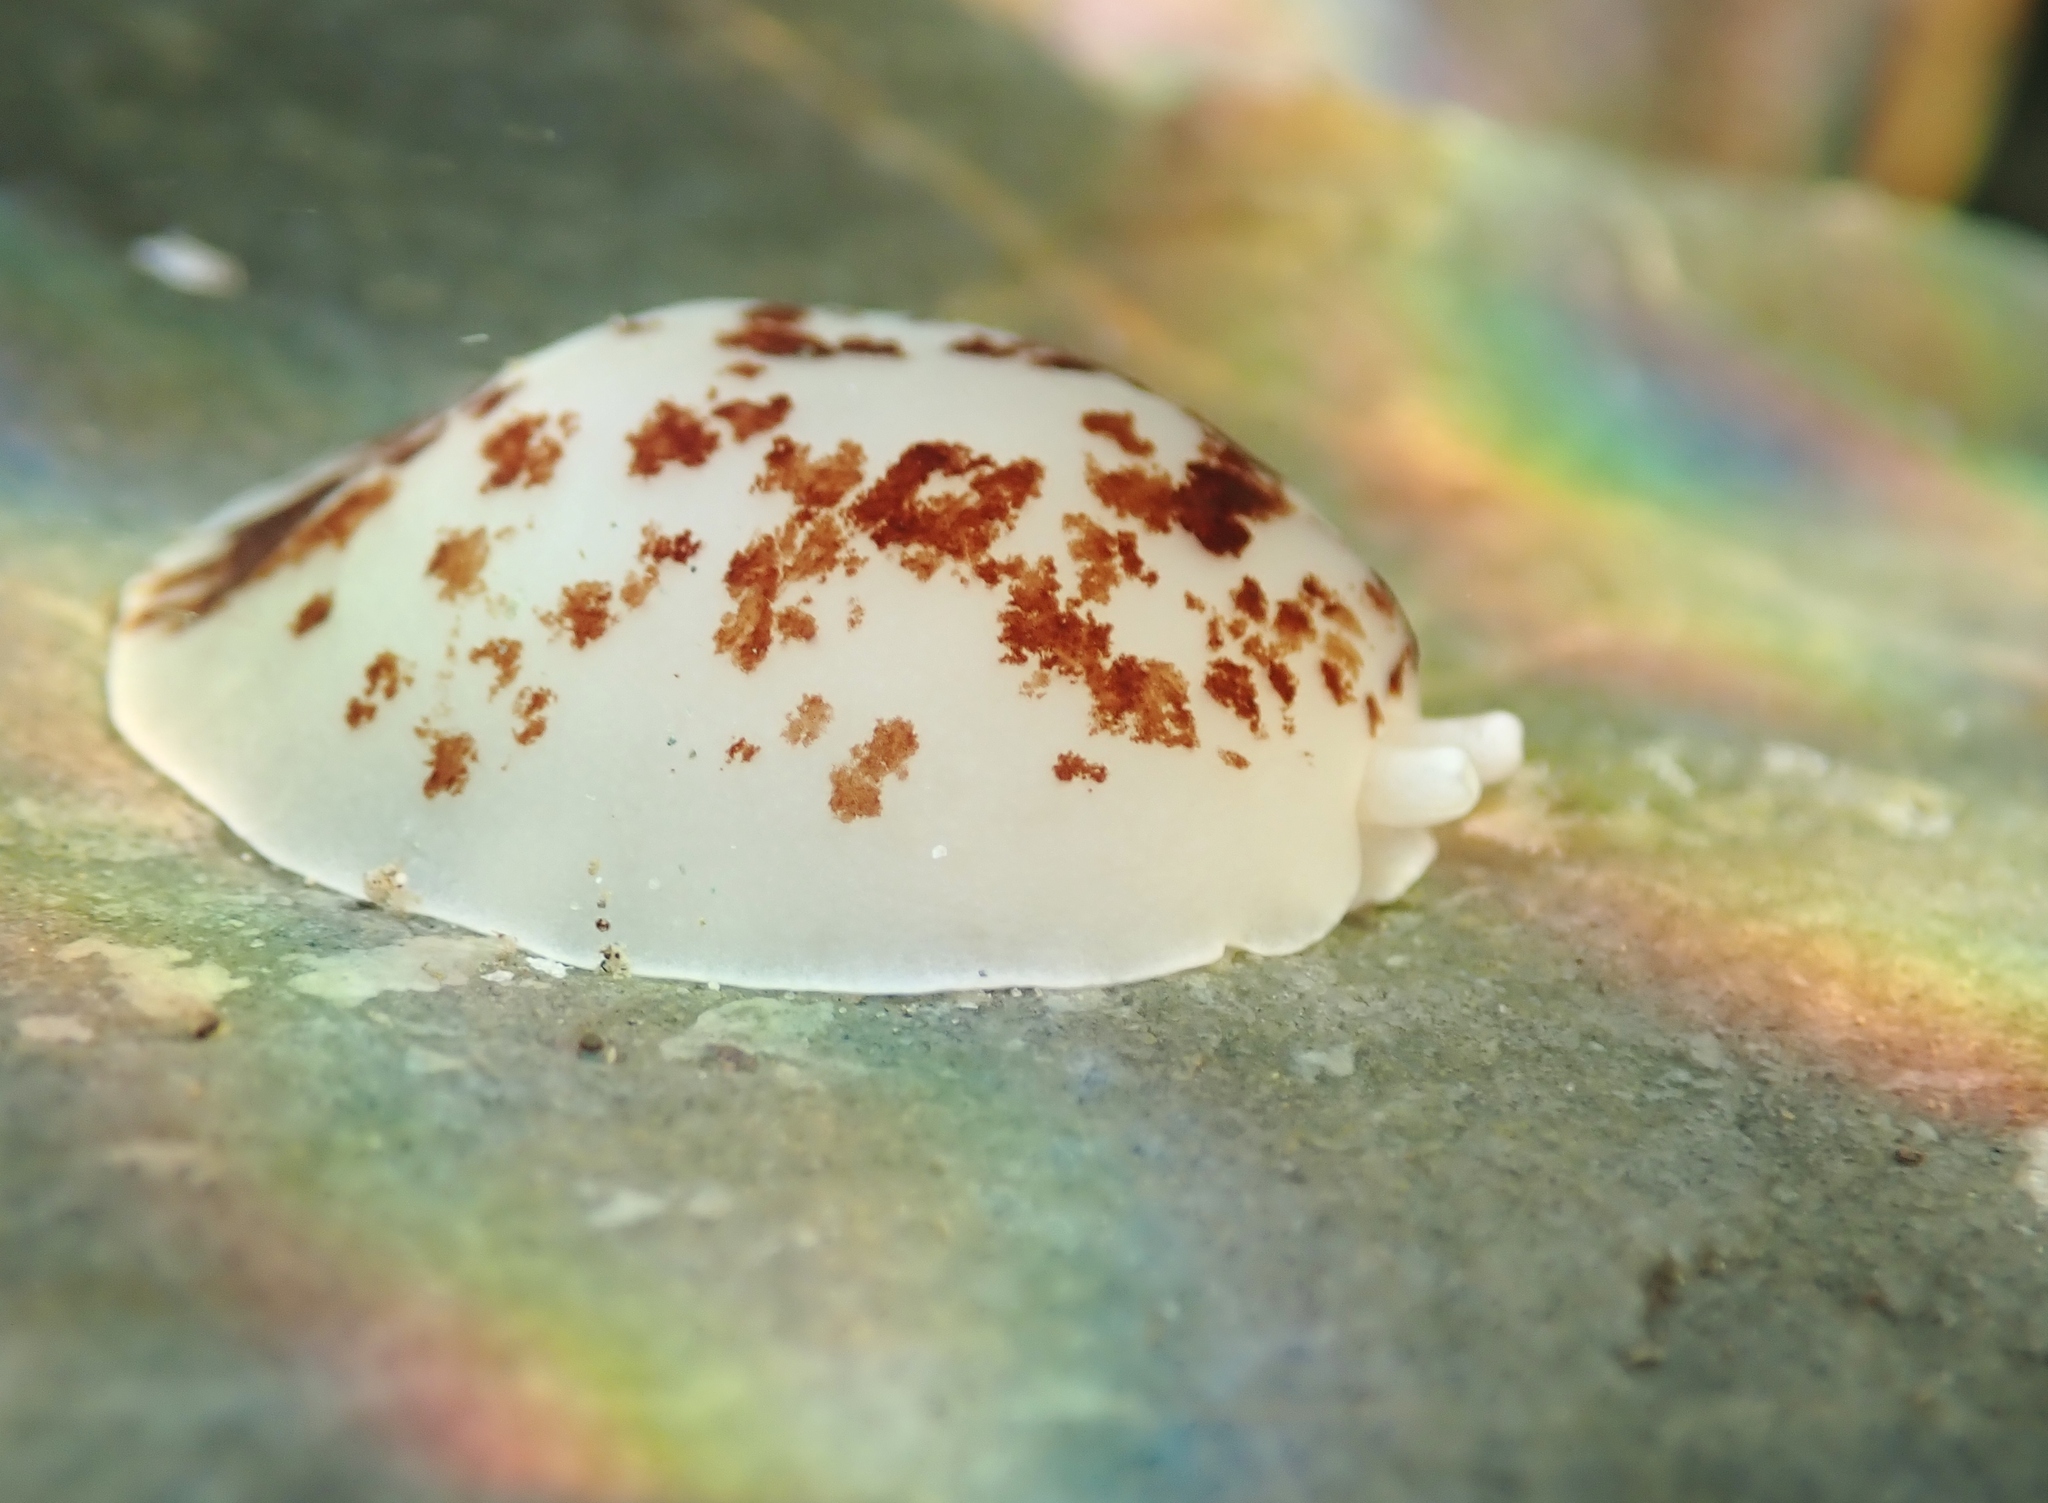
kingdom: Animalia
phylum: Mollusca
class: Gastropoda
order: Pleurobranchida
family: Pleurobranchidae
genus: Berthella
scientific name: Berthella ornata
